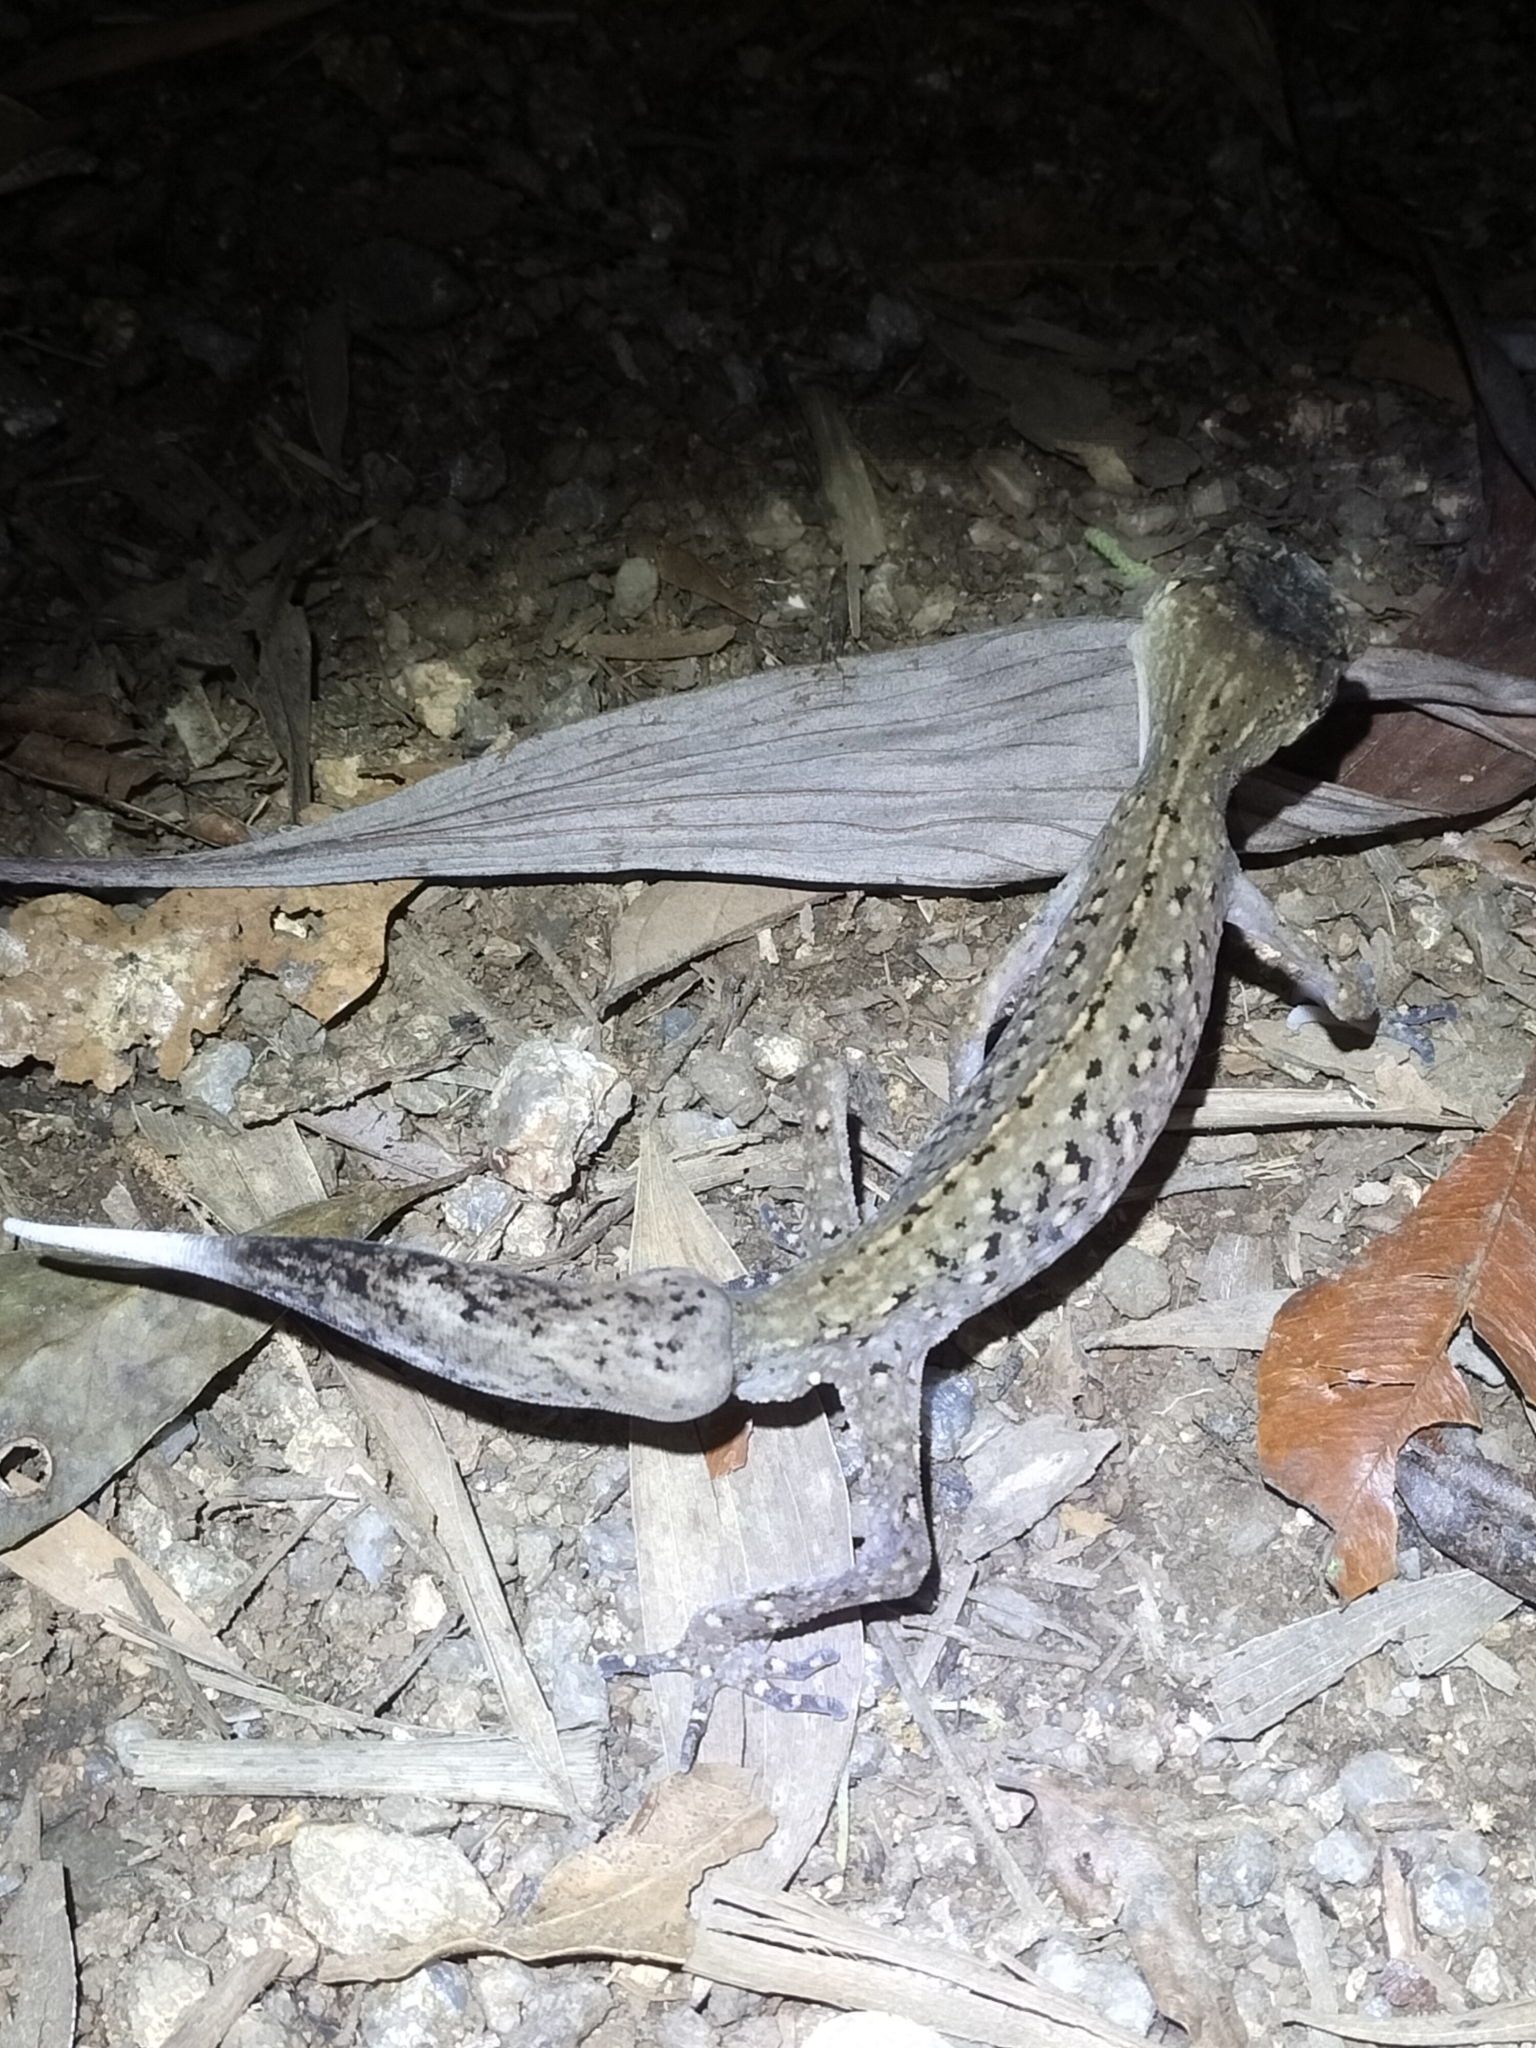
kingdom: Animalia
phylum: Chordata
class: Squamata
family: Carphodactylidae
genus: Carphodactylus
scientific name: Carphodactylus laevis
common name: Chameleon gecko
